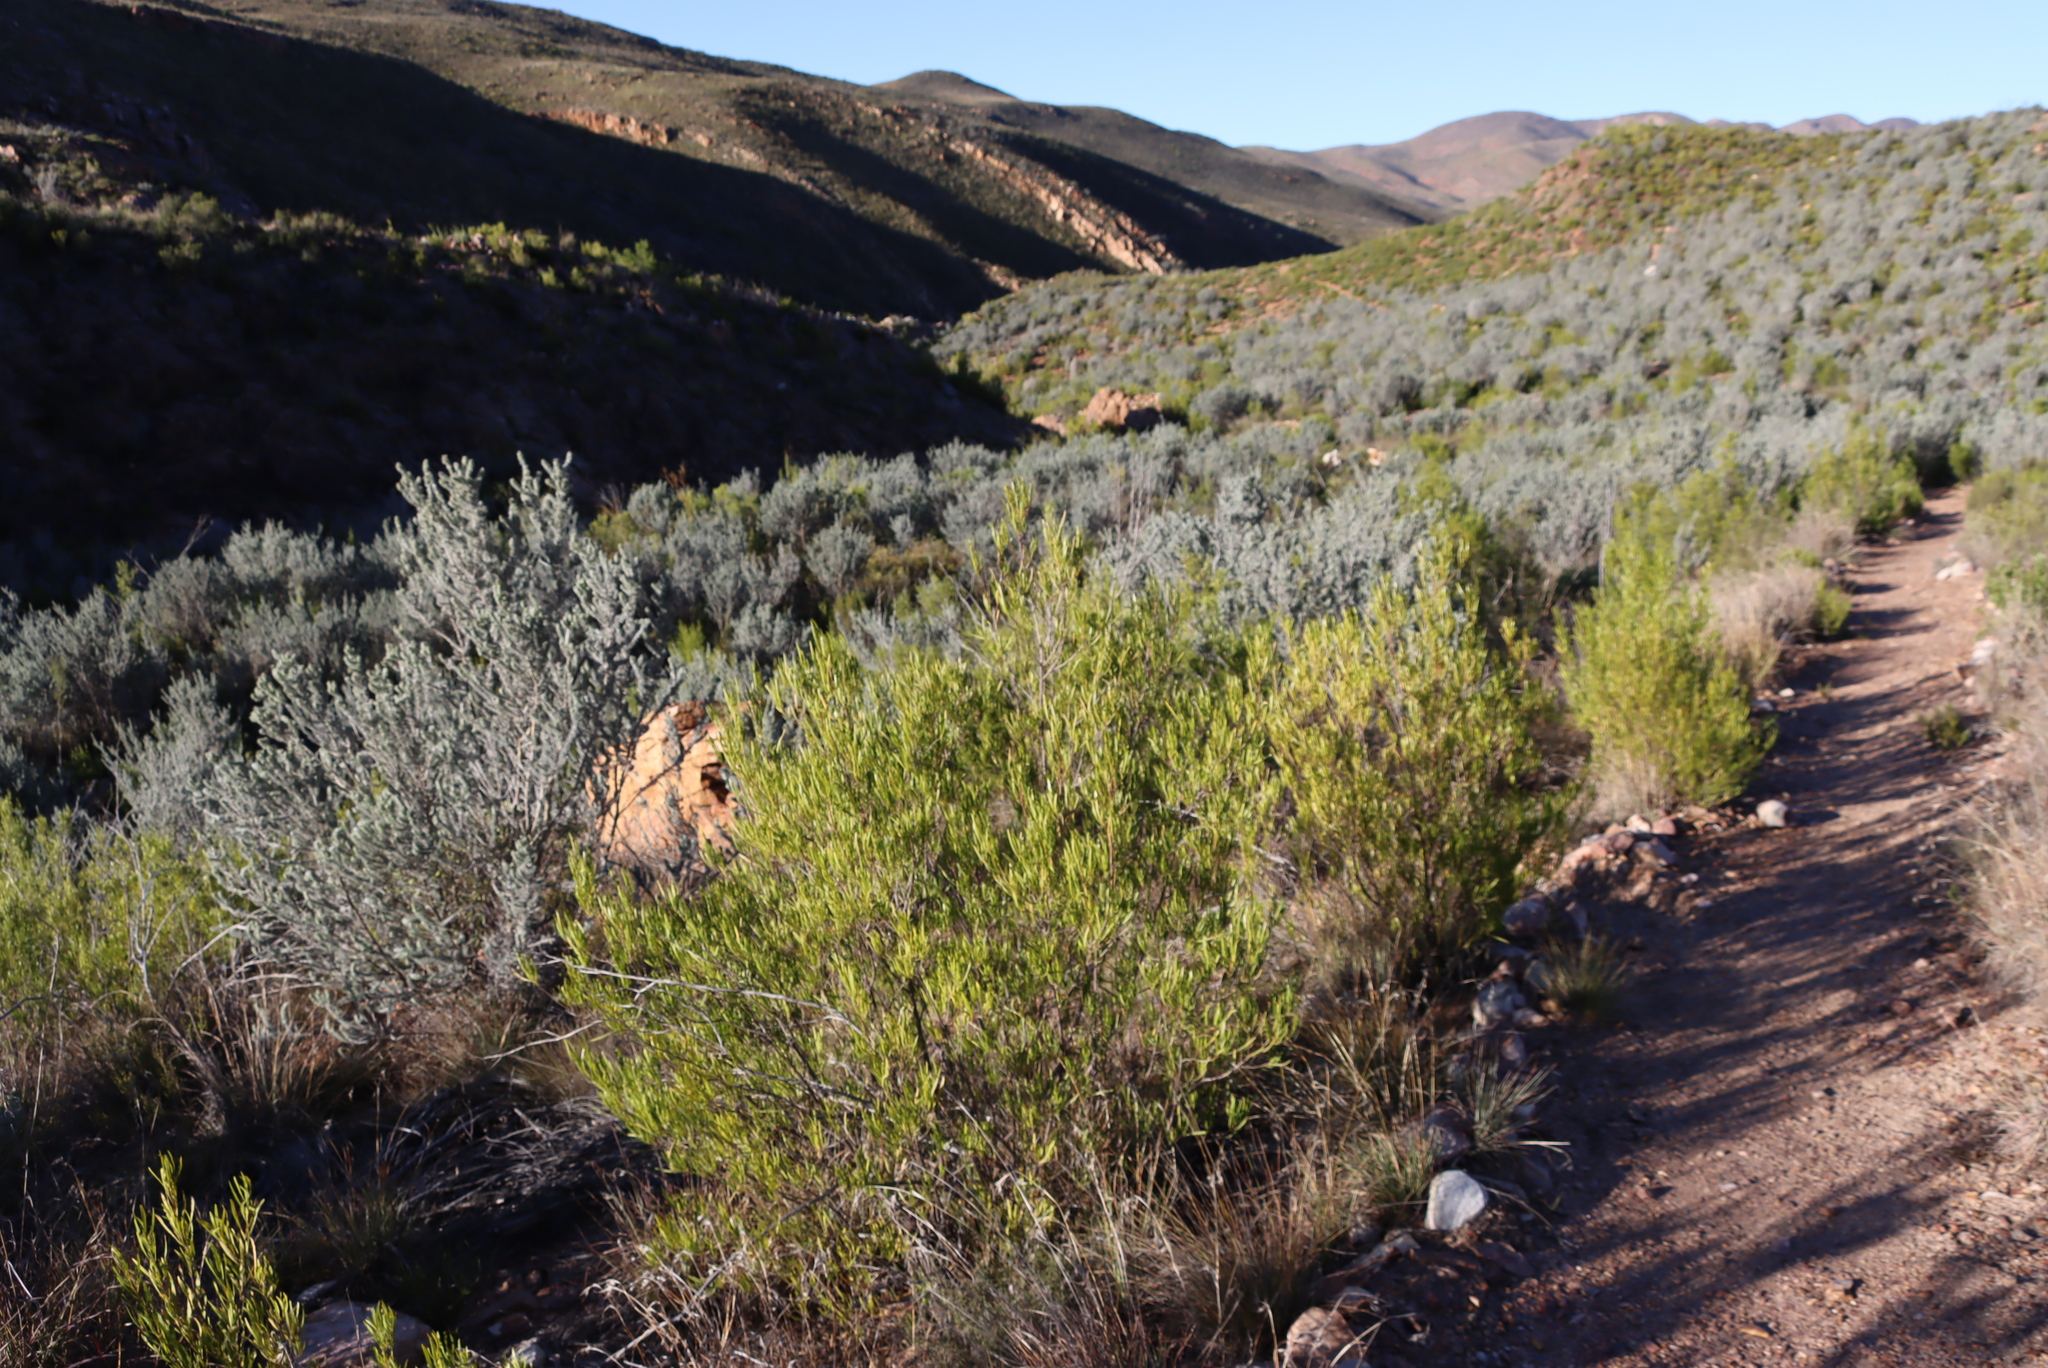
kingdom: Plantae
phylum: Tracheophyta
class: Magnoliopsida
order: Sapindales
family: Sapindaceae
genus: Dodonaea
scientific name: Dodonaea viscosa
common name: Hopbush
